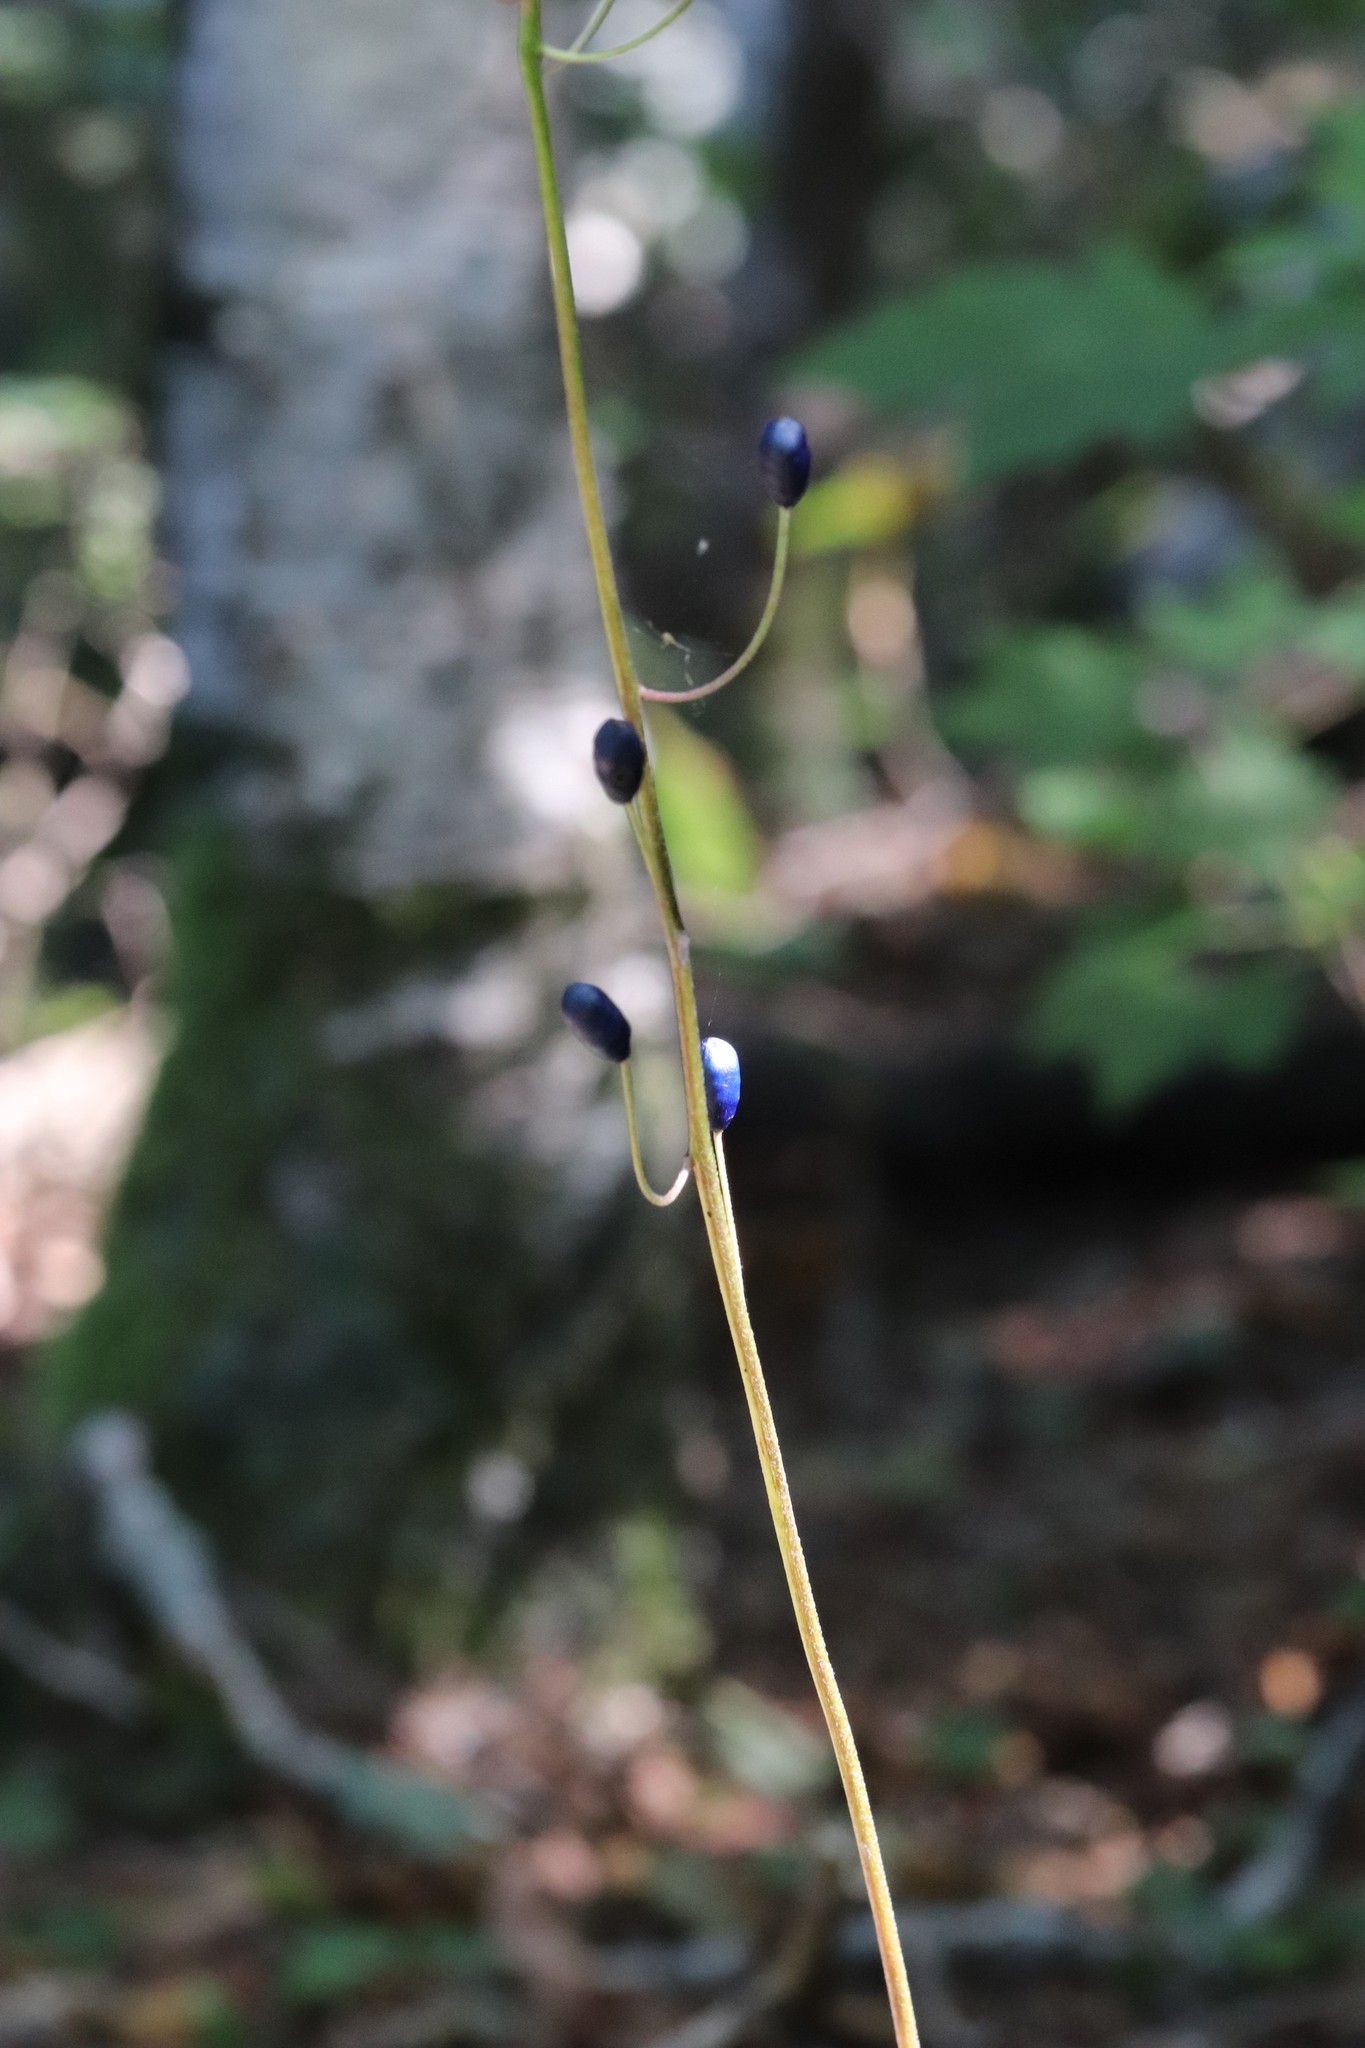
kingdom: Plantae
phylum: Tracheophyta
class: Liliopsida
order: Liliales
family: Liliaceae
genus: Clintonia
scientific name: Clintonia udensis
